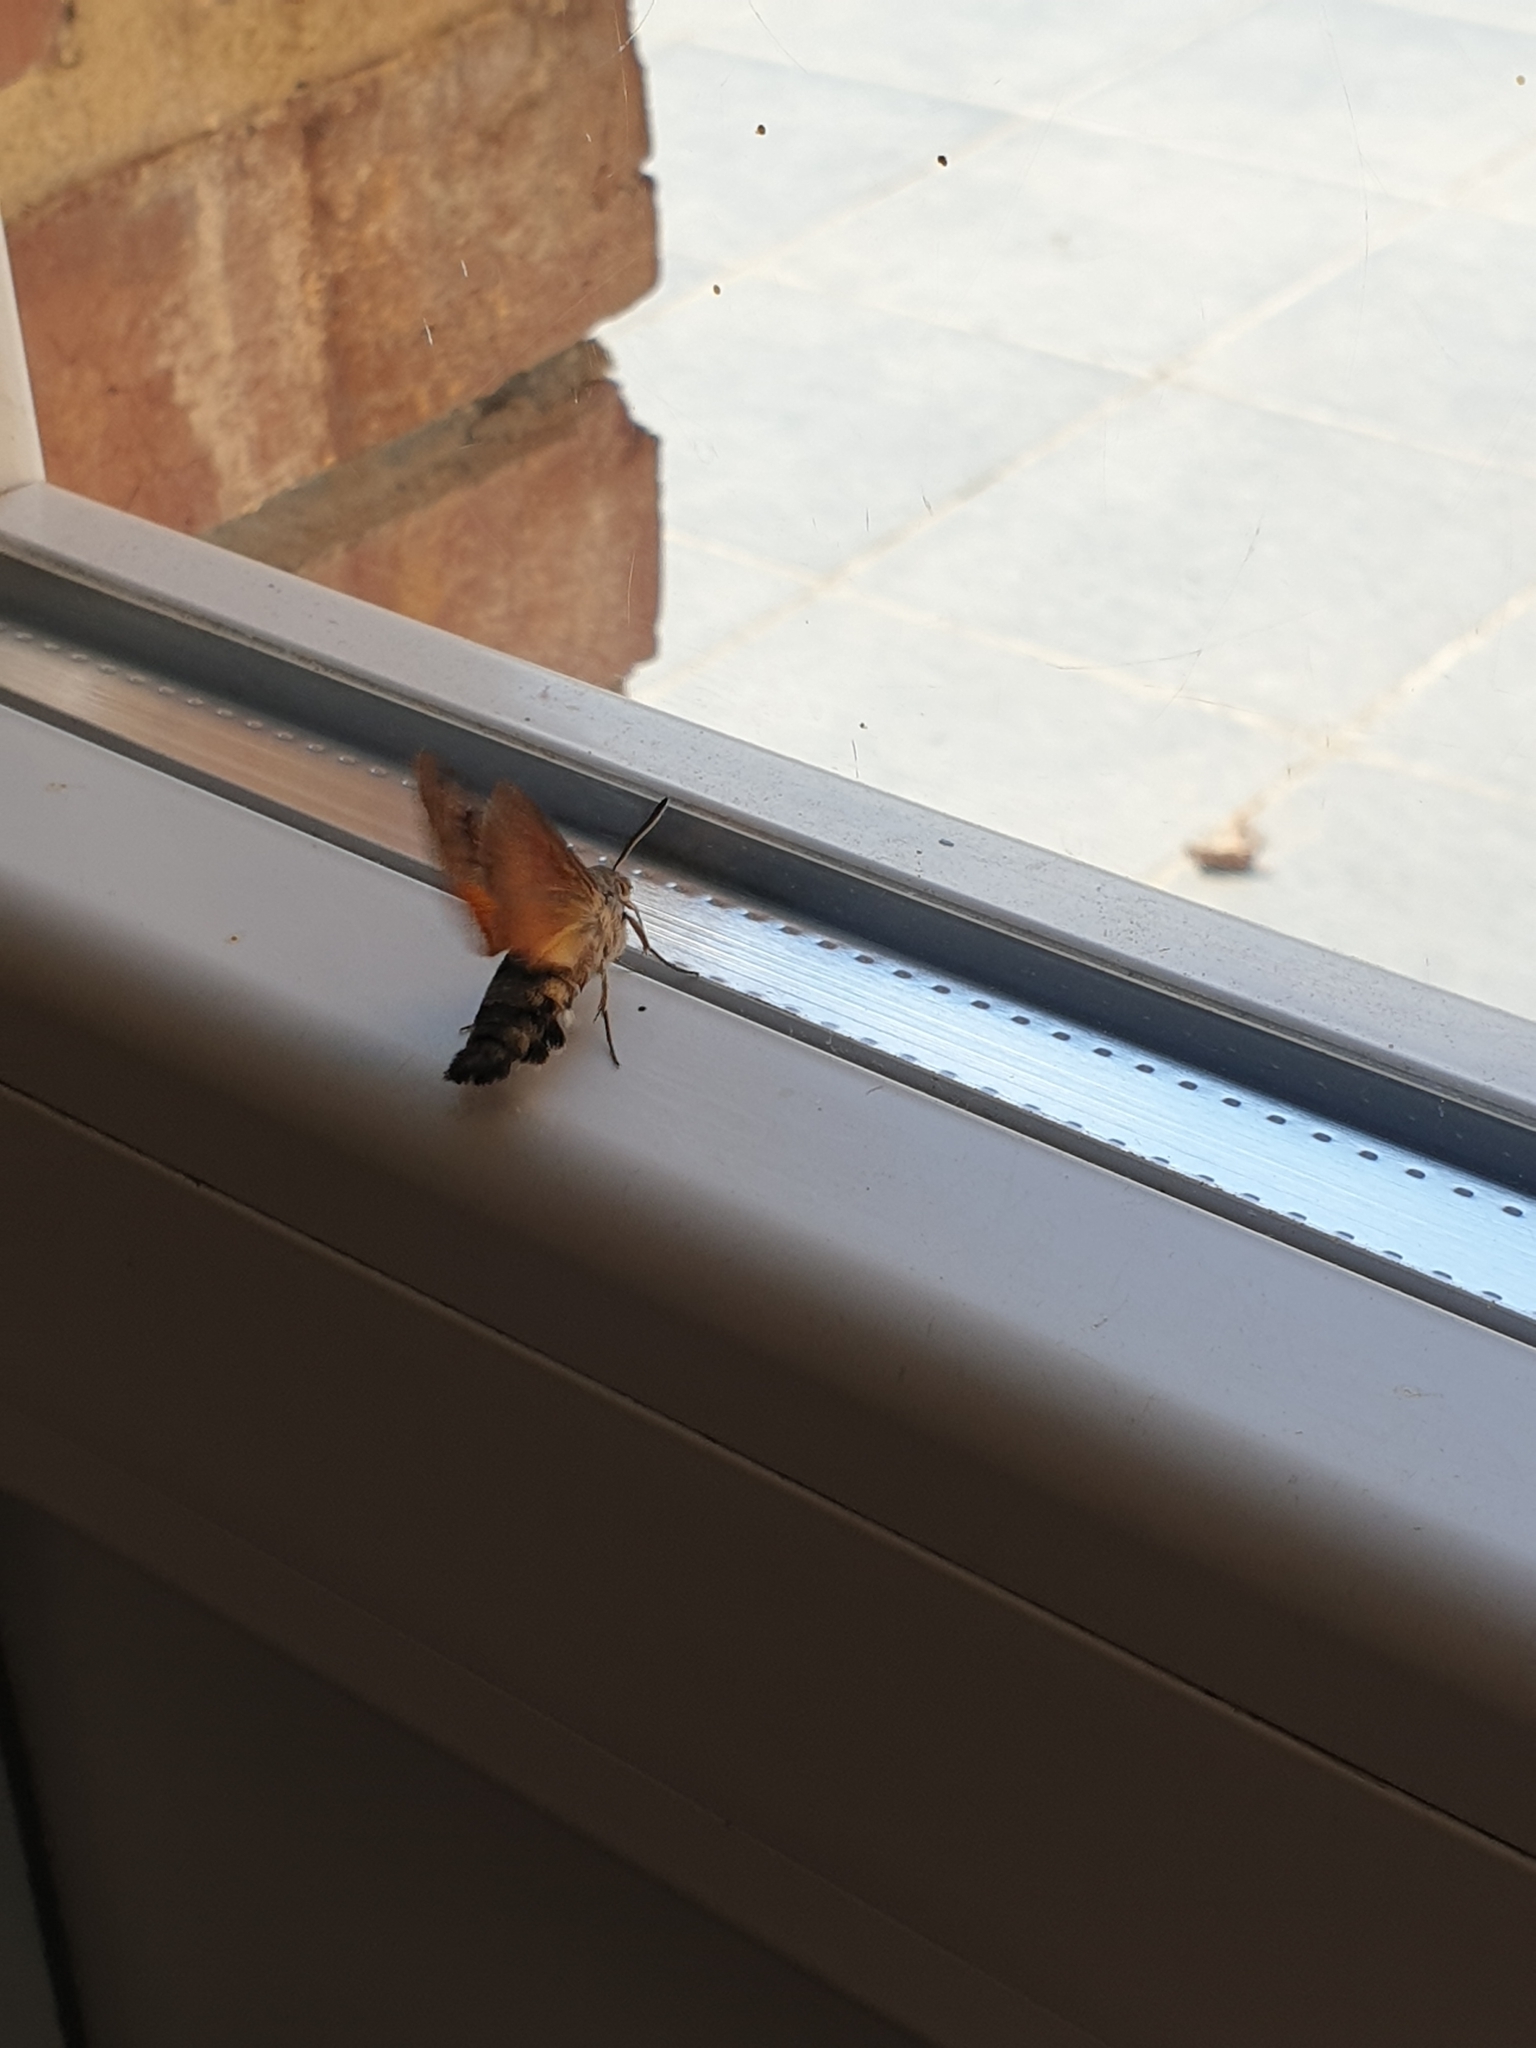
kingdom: Animalia
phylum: Arthropoda
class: Insecta
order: Lepidoptera
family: Sphingidae
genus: Macroglossum
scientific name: Macroglossum stellatarum
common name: Humming-bird hawk-moth
